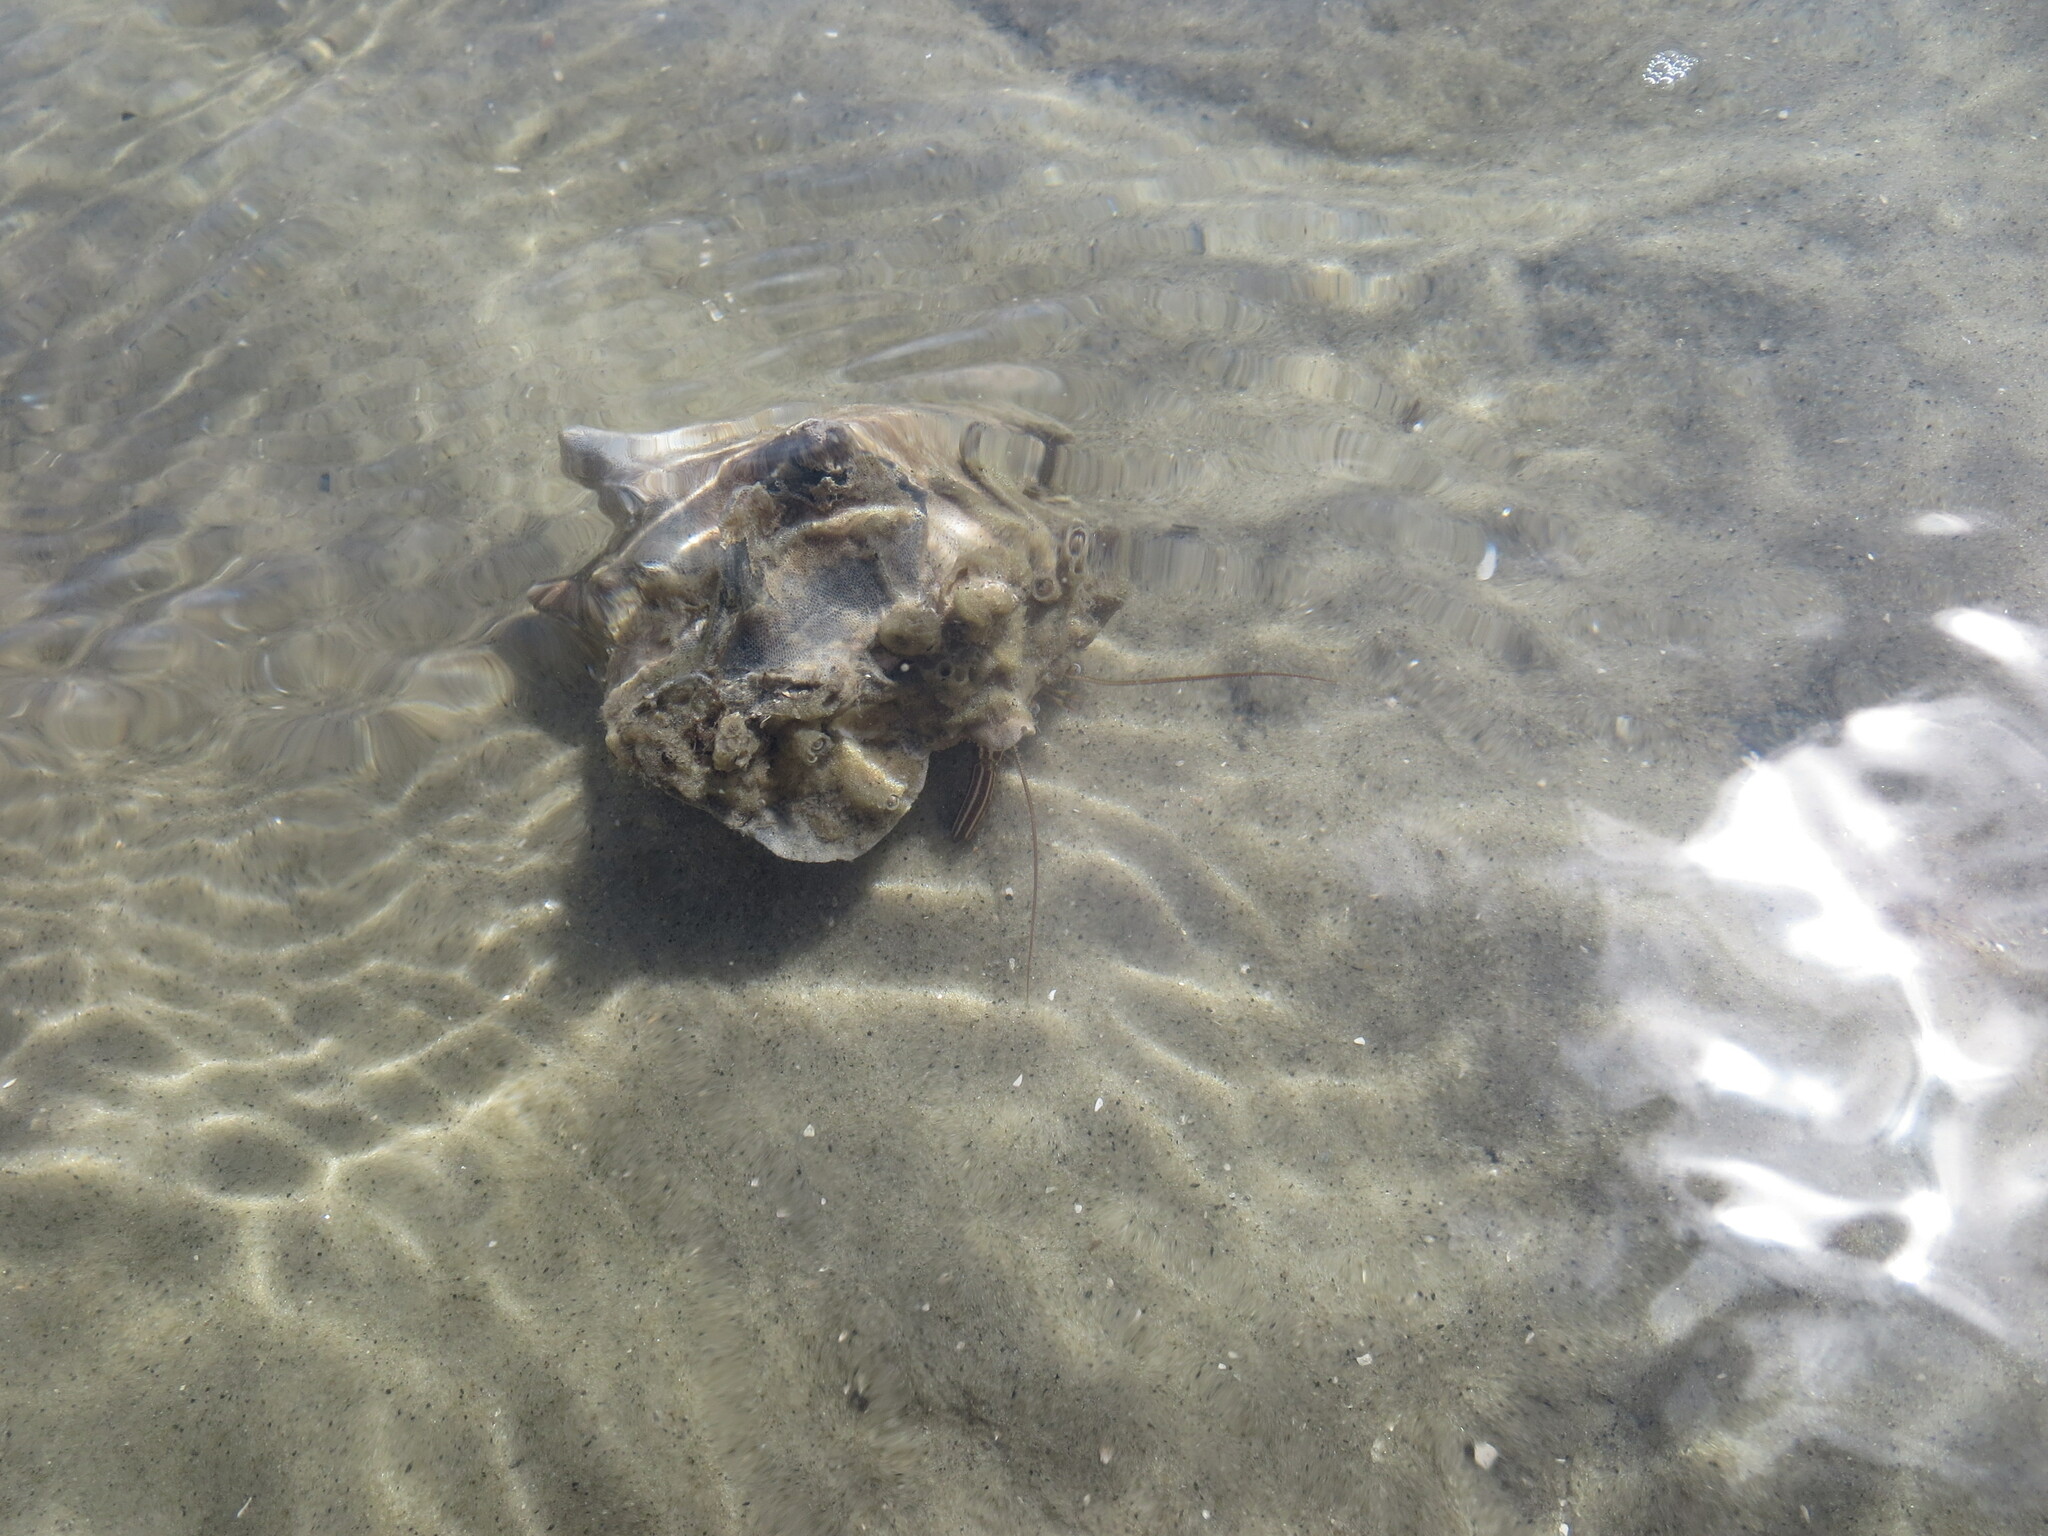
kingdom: Animalia
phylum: Arthropoda
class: Malacostraca
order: Decapoda
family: Diogenidae
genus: Clibanarius
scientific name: Clibanarius vittatus
